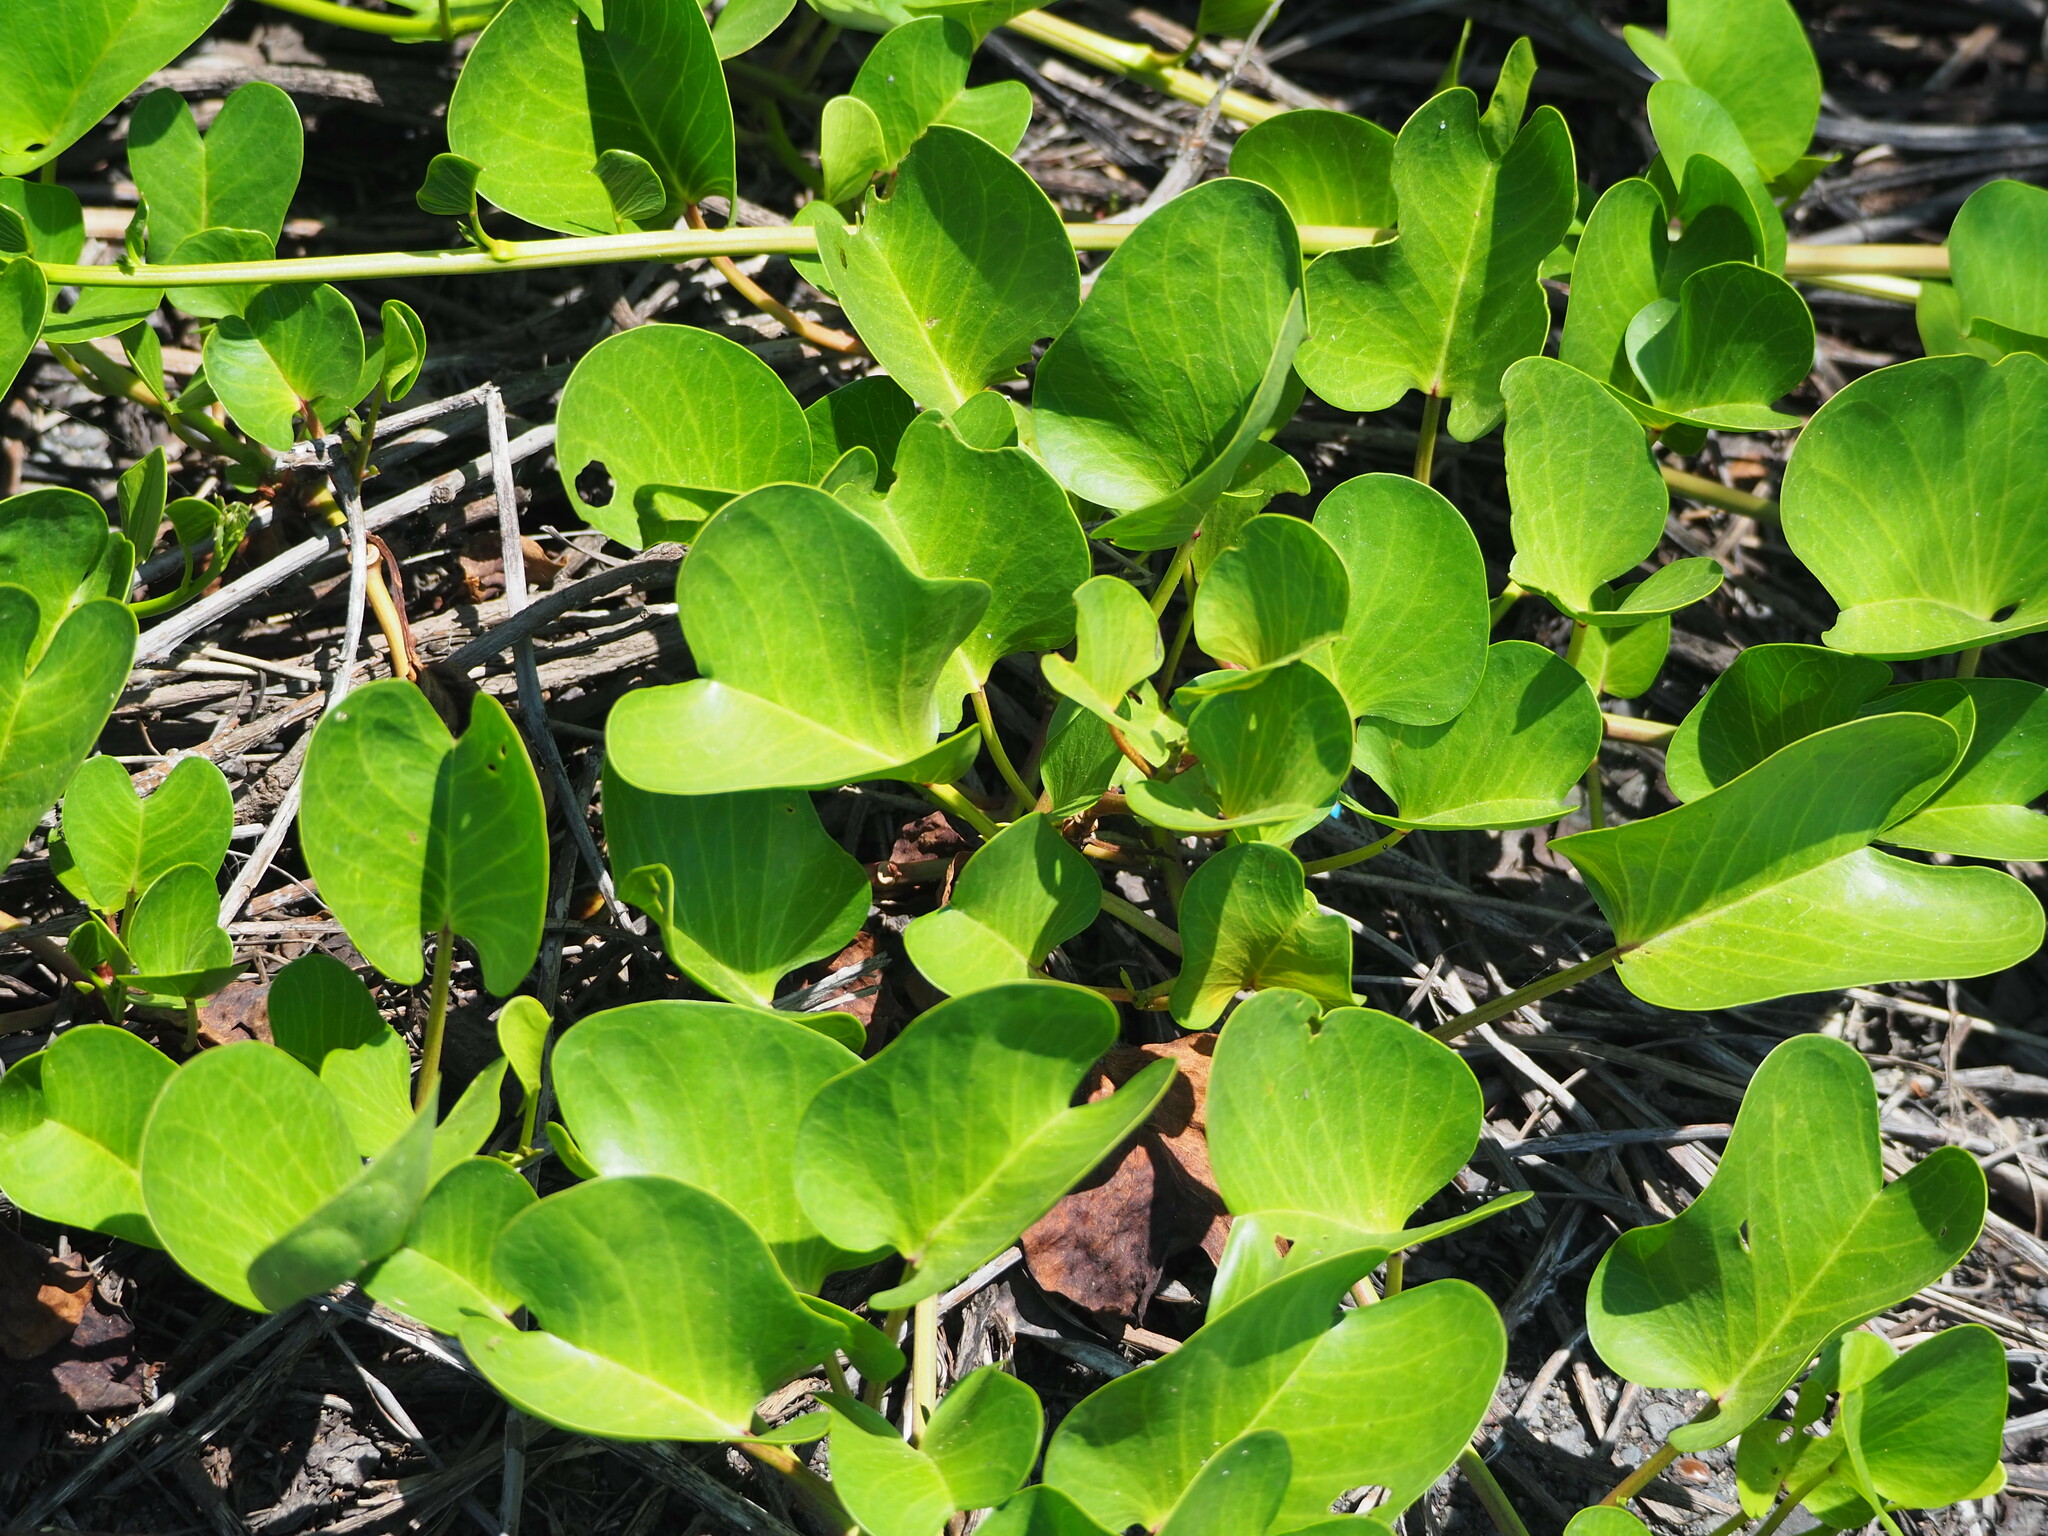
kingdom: Plantae
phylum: Tracheophyta
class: Magnoliopsida
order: Solanales
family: Convolvulaceae
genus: Ipomoea
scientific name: Ipomoea pes-caprae
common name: Beach morning glory
